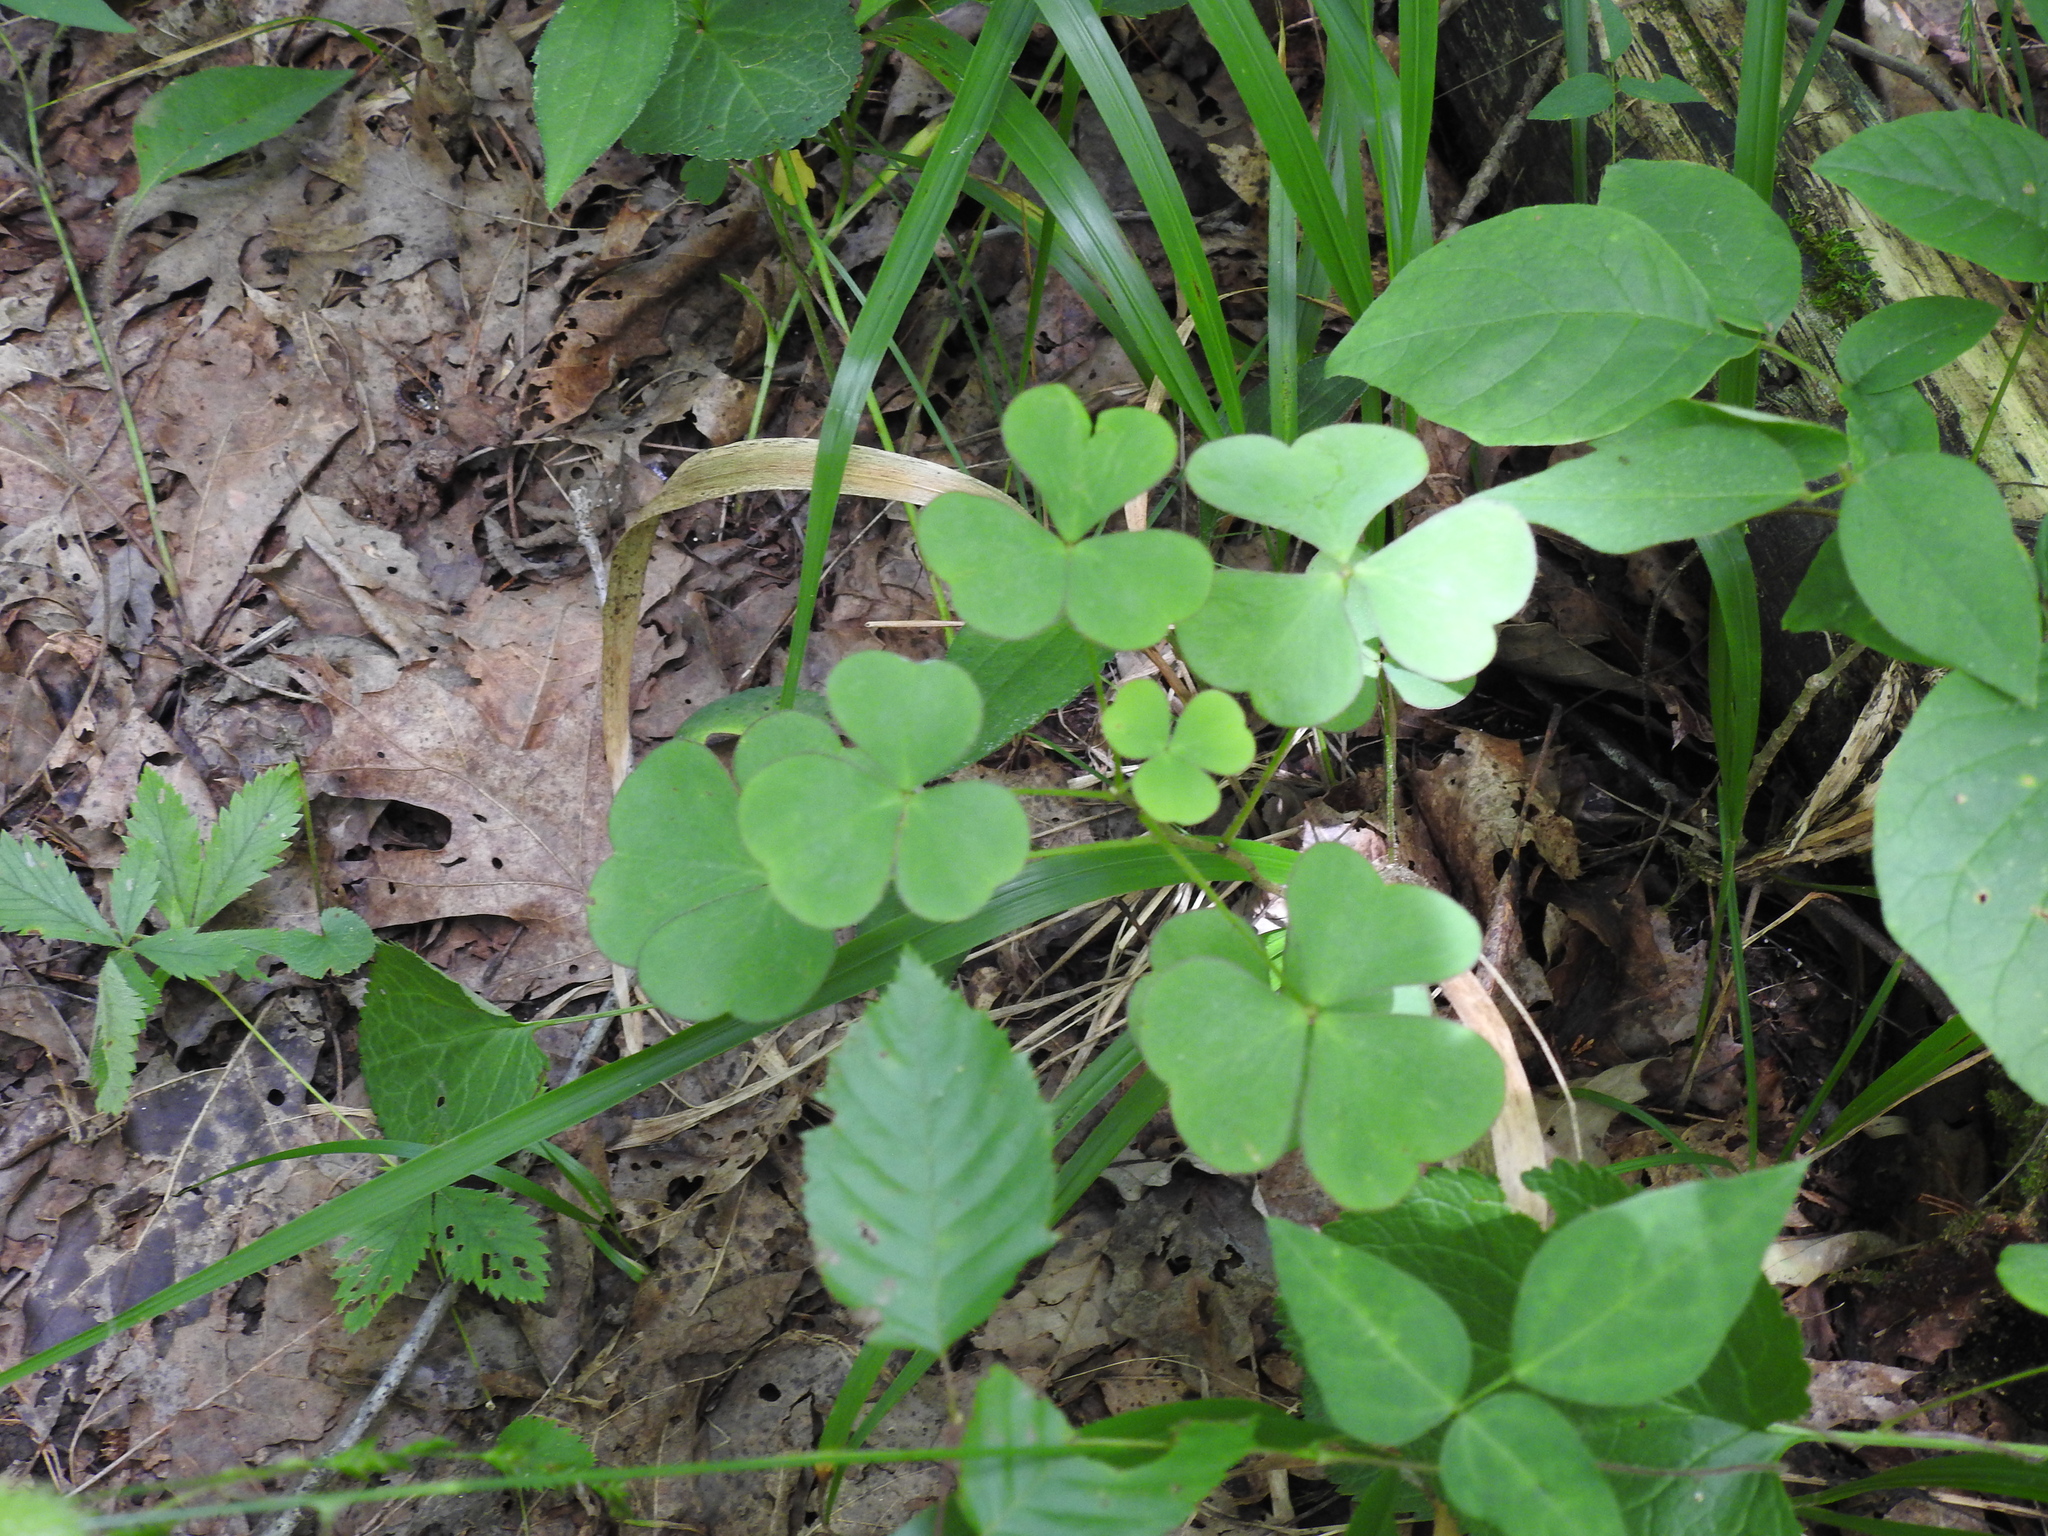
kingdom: Plantae
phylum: Tracheophyta
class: Magnoliopsida
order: Oxalidales
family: Oxalidaceae
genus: Oxalis
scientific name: Oxalis grandis
